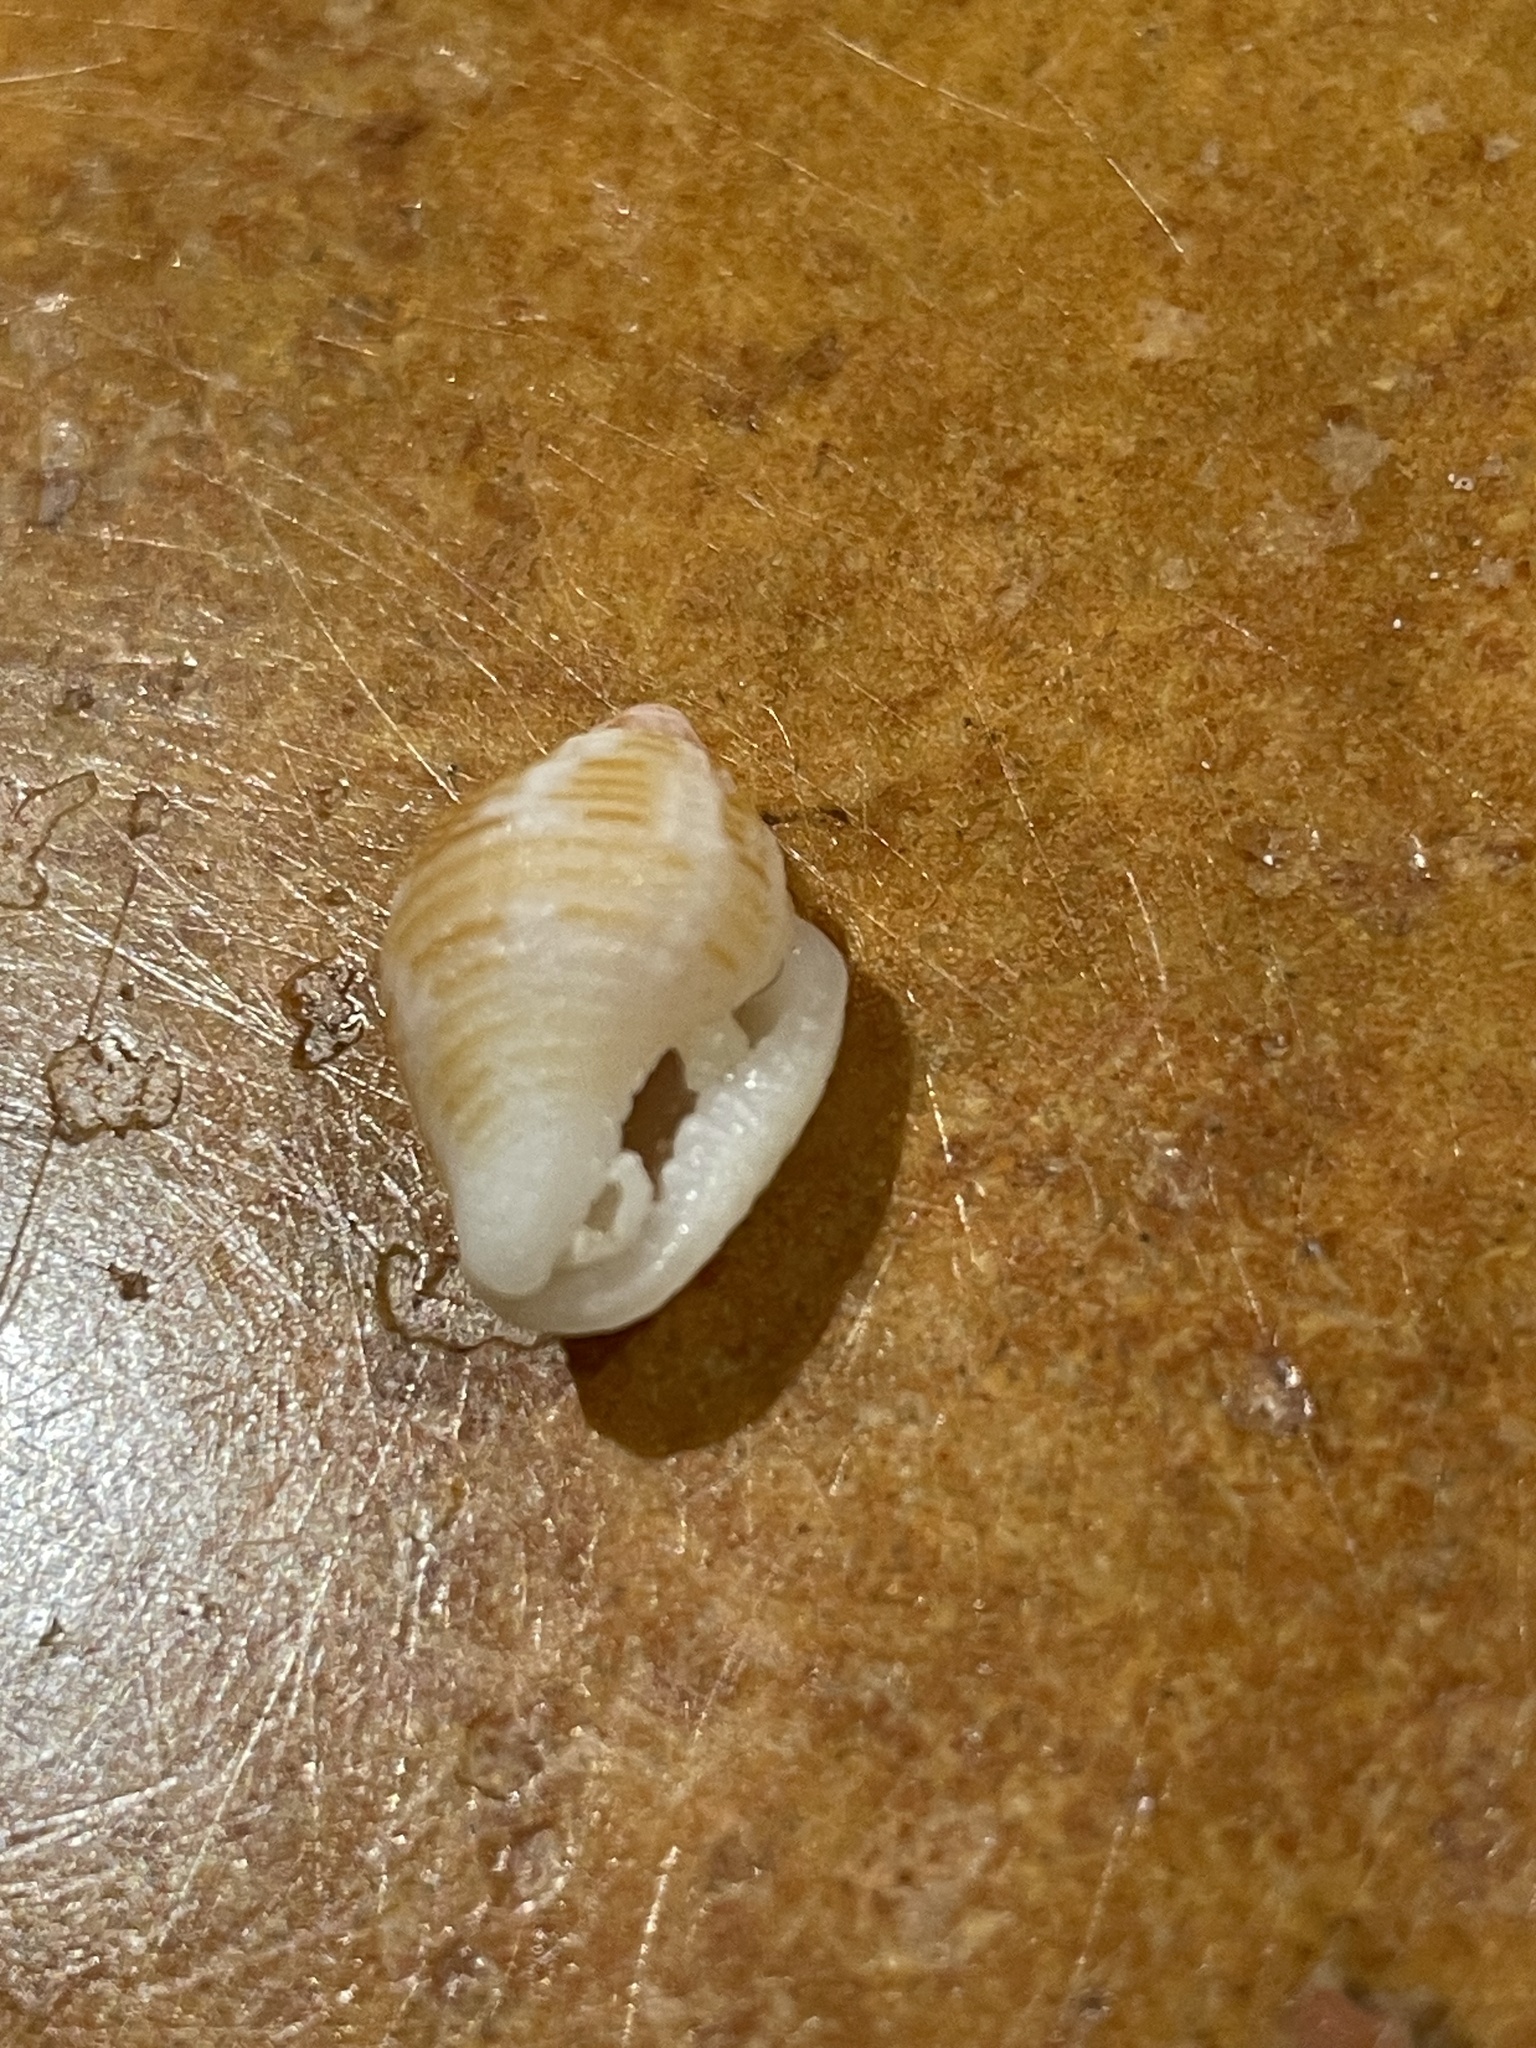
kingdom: Animalia
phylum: Mollusca
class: Gastropoda
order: Neogastropoda
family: Columbellidae
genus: Columbella
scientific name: Columbella mercatoria
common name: West indian dovesnail
